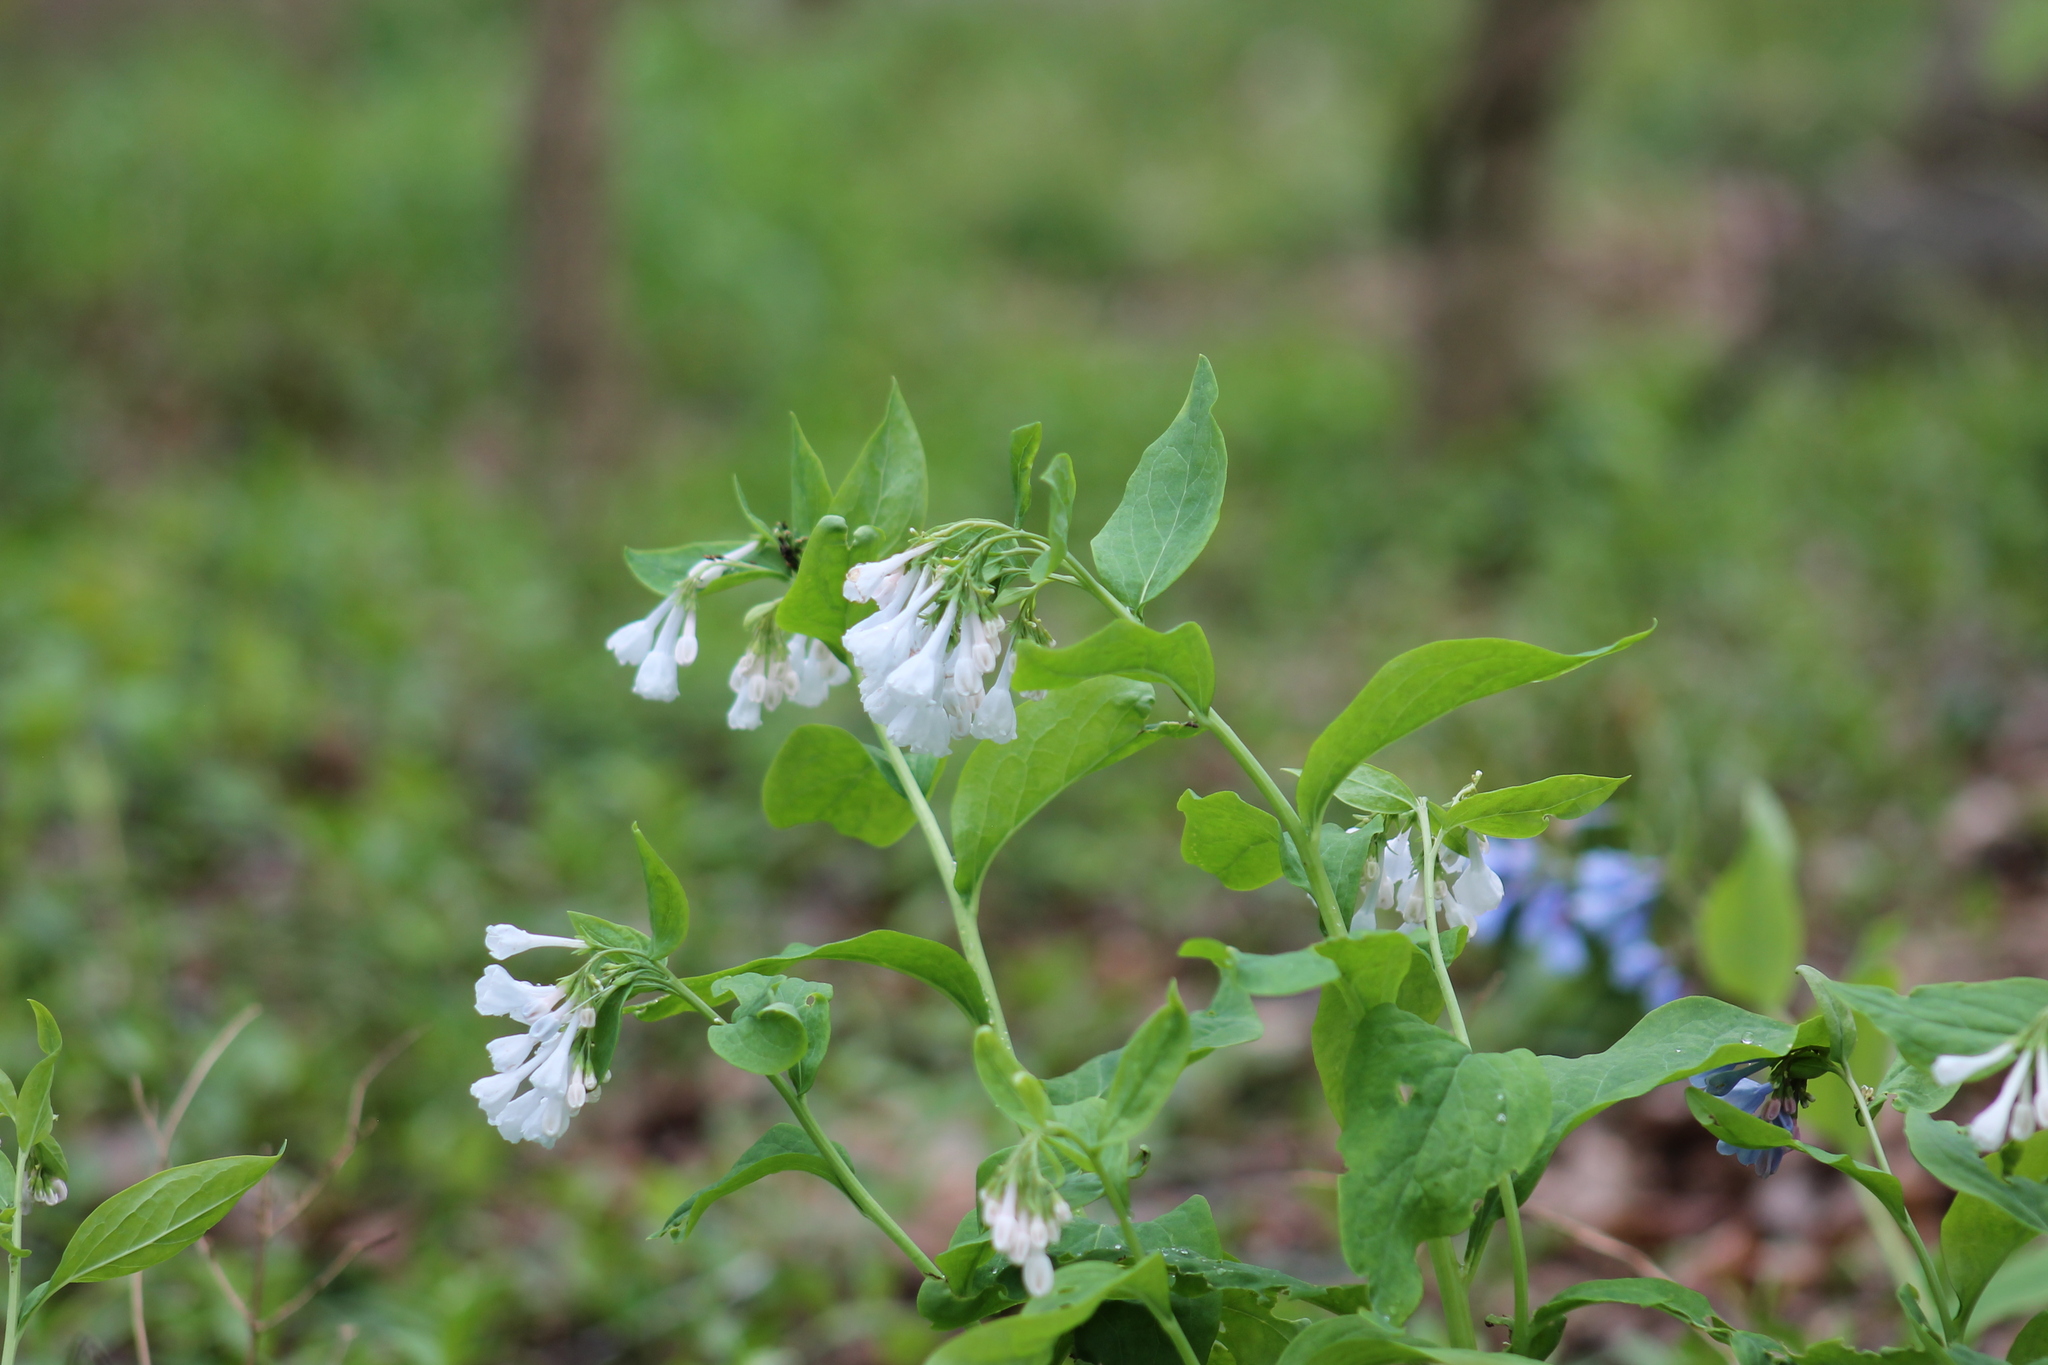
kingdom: Plantae
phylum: Tracheophyta
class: Magnoliopsida
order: Boraginales
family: Boraginaceae
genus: Mertensia
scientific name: Mertensia virginica
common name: Virginia bluebells
